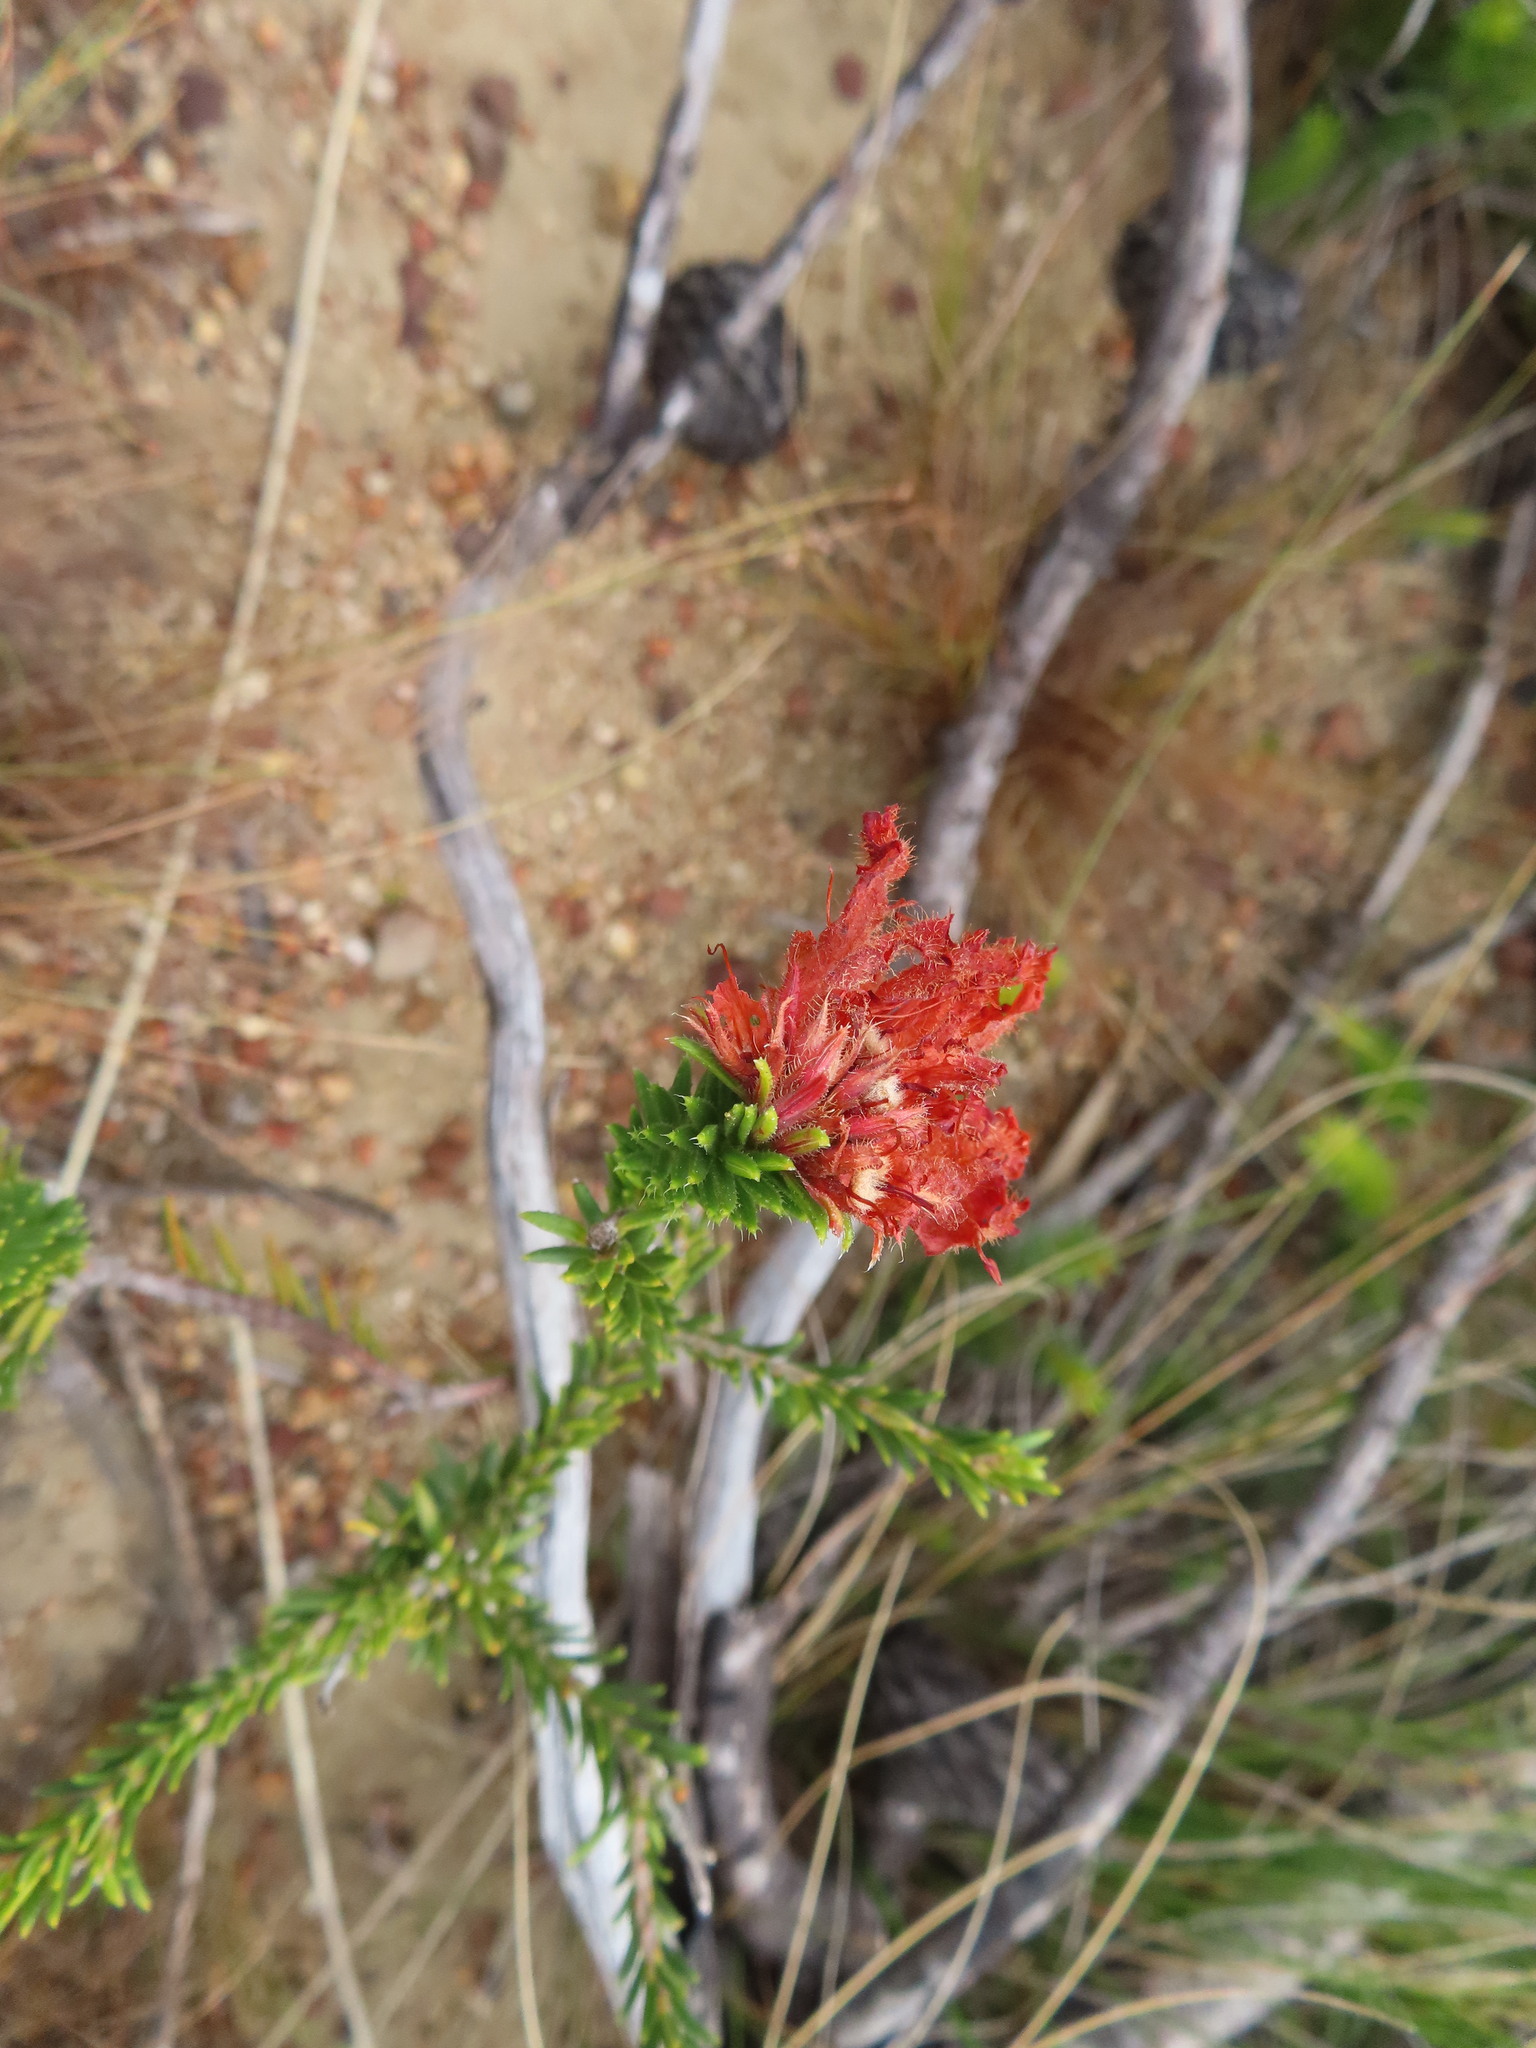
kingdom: Plantae
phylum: Tracheophyta
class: Magnoliopsida
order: Ericales
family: Ericaceae
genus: Erica
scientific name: Erica cerinthoides
